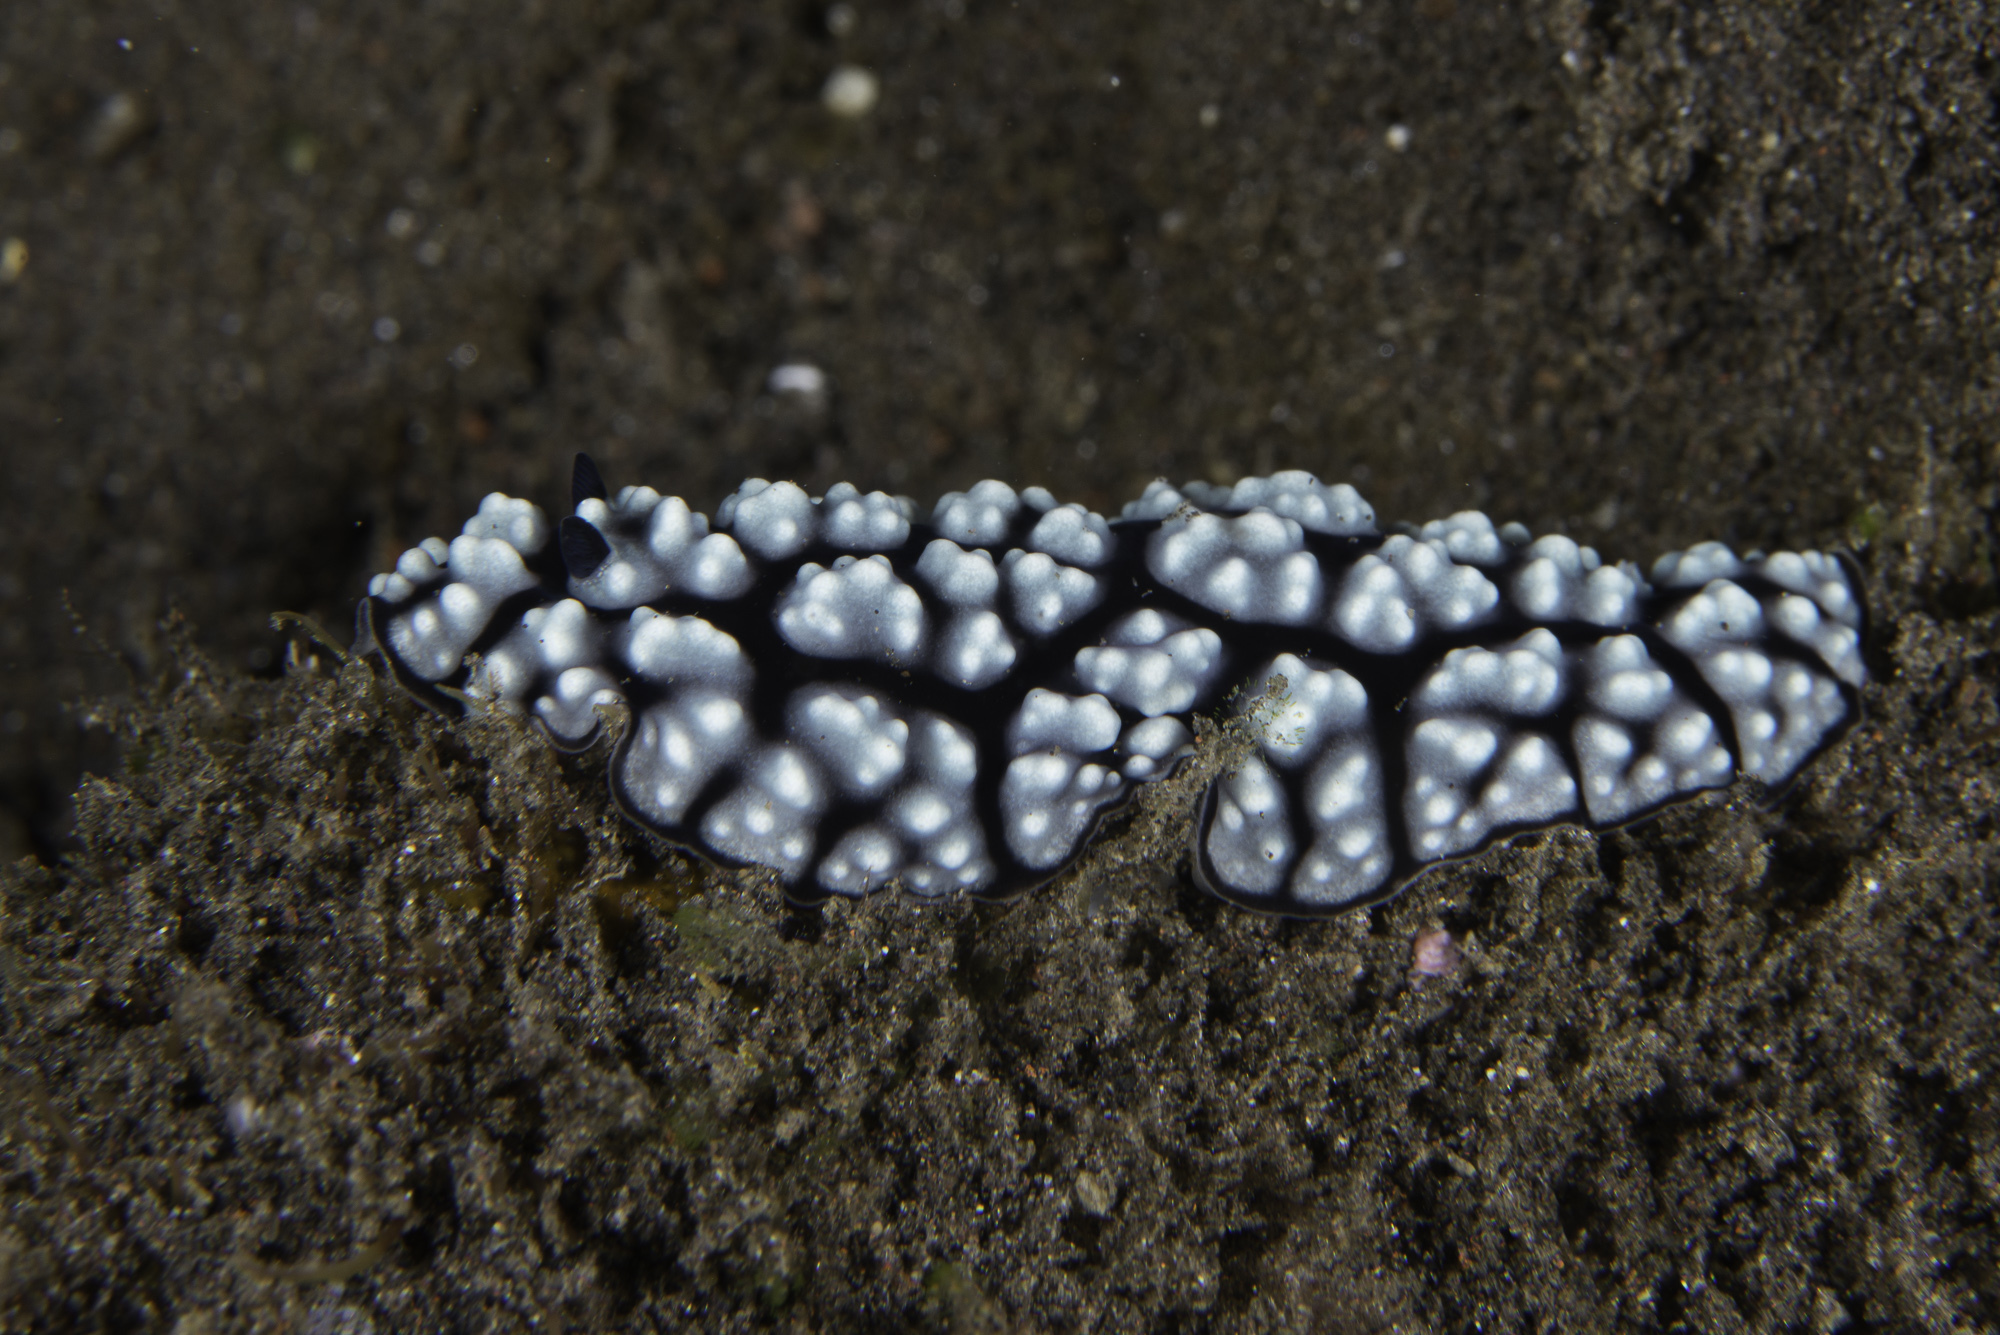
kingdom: Animalia
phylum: Mollusca
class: Gastropoda
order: Nudibranchia
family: Phyllidiidae
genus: Phyllidiella
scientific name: Phyllidiella pustulosa
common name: Pustular phyllidia
